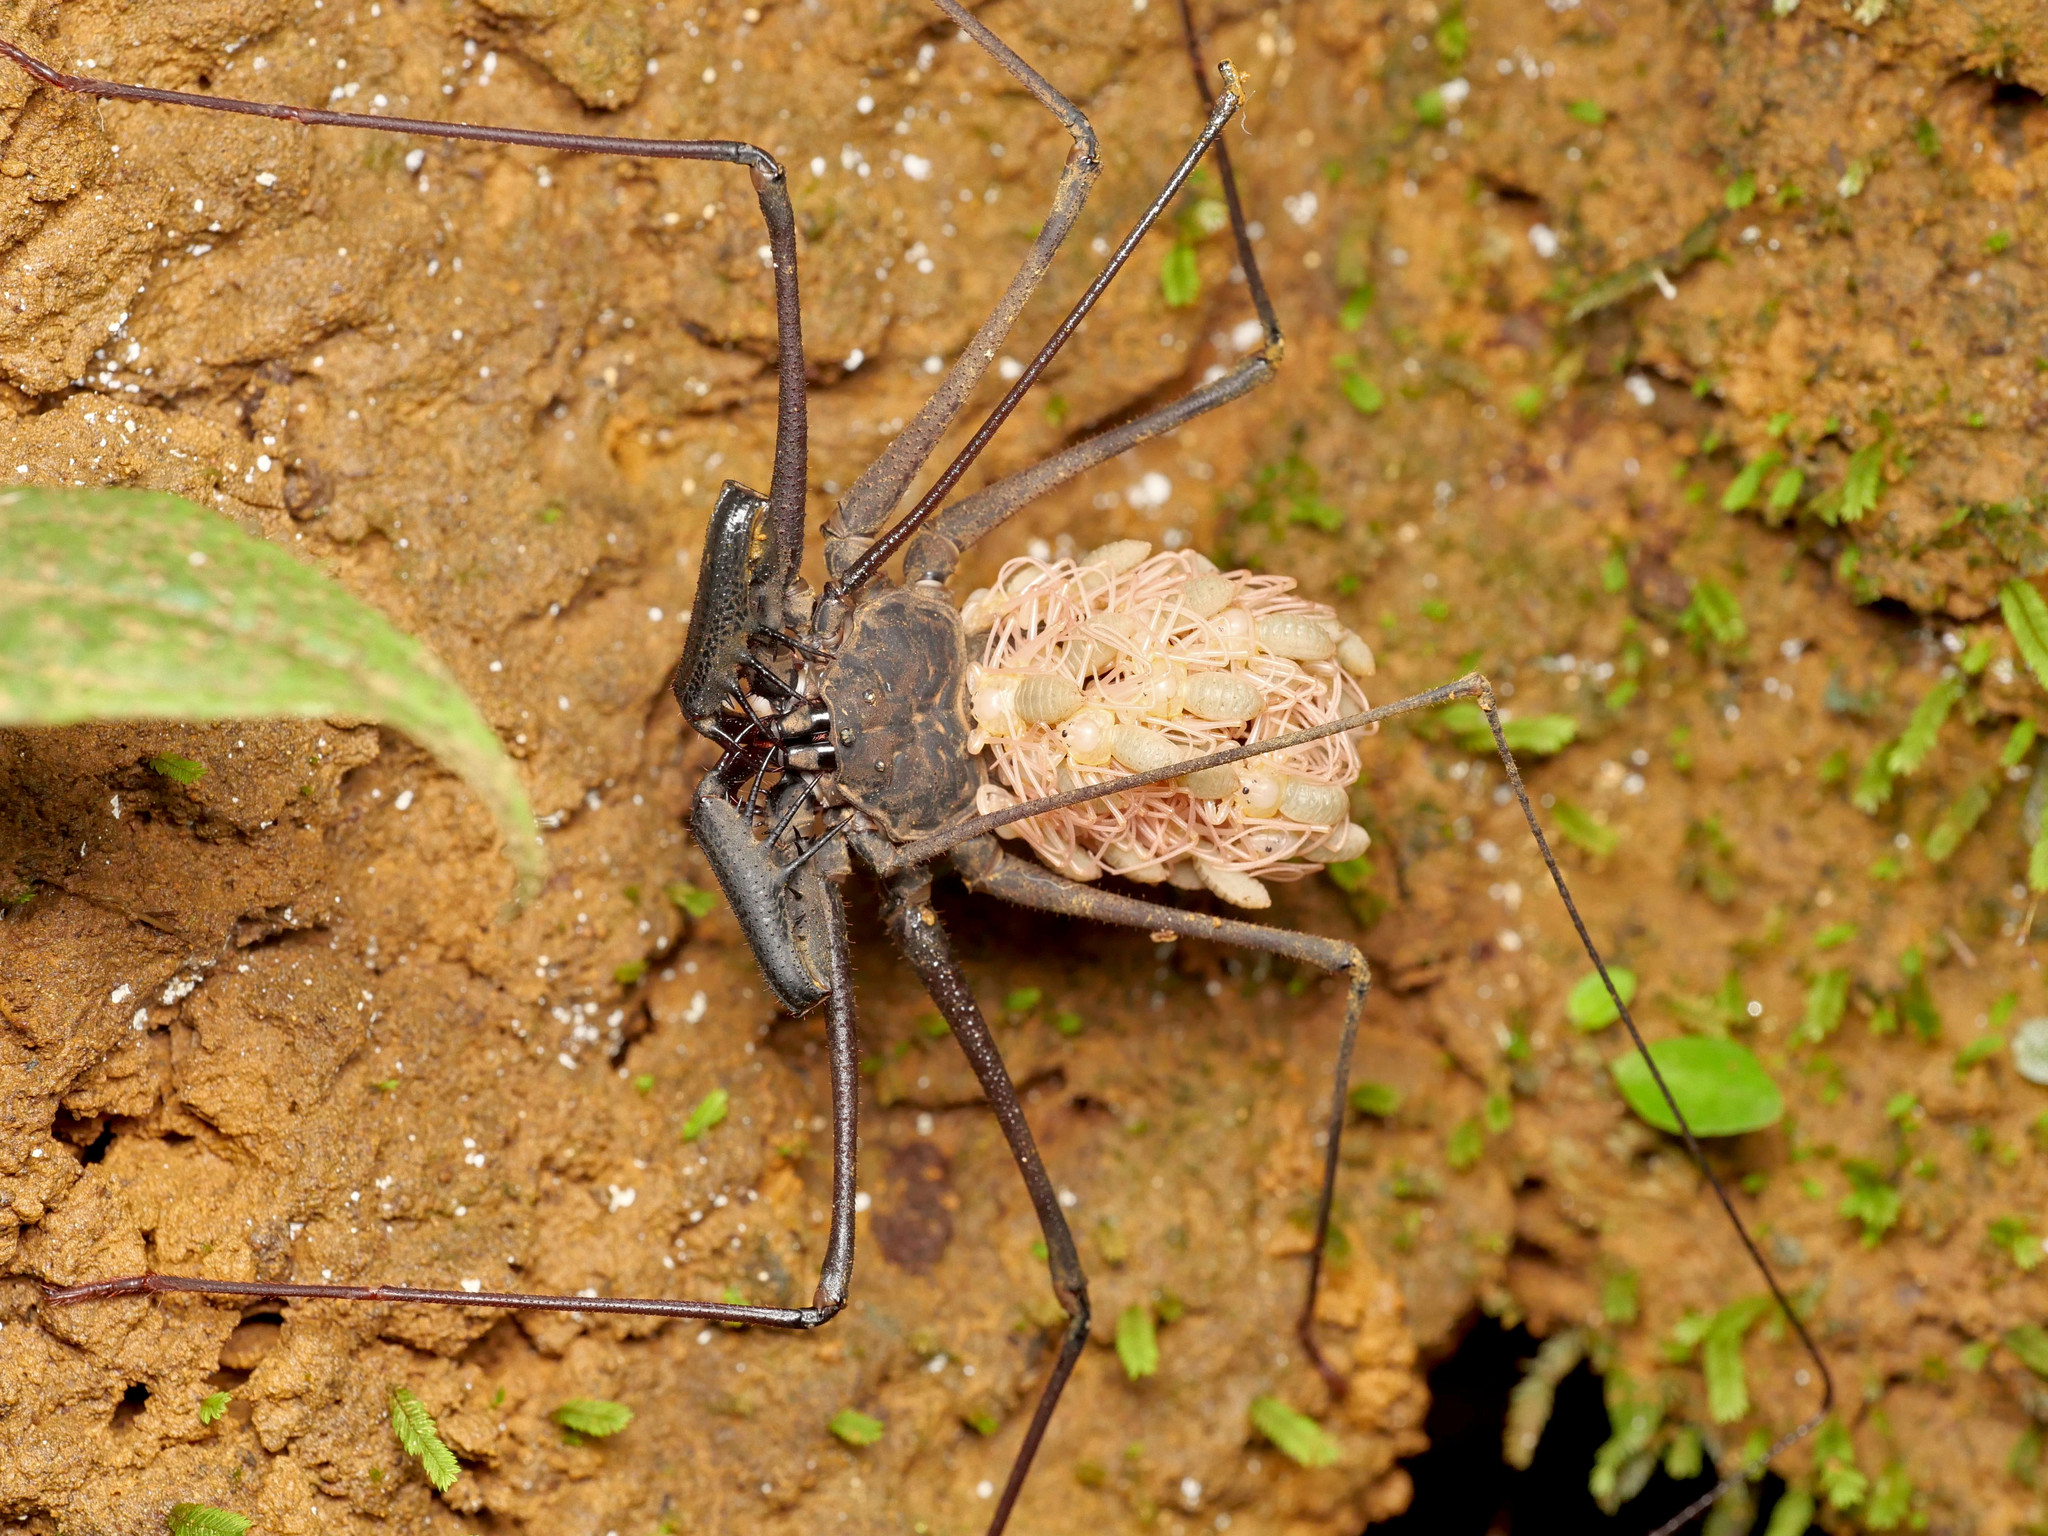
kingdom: Animalia
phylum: Arthropoda
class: Arachnida
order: Amblypygi
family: Phrynidae
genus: Heterophrynus
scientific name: Heterophrynus armiger
